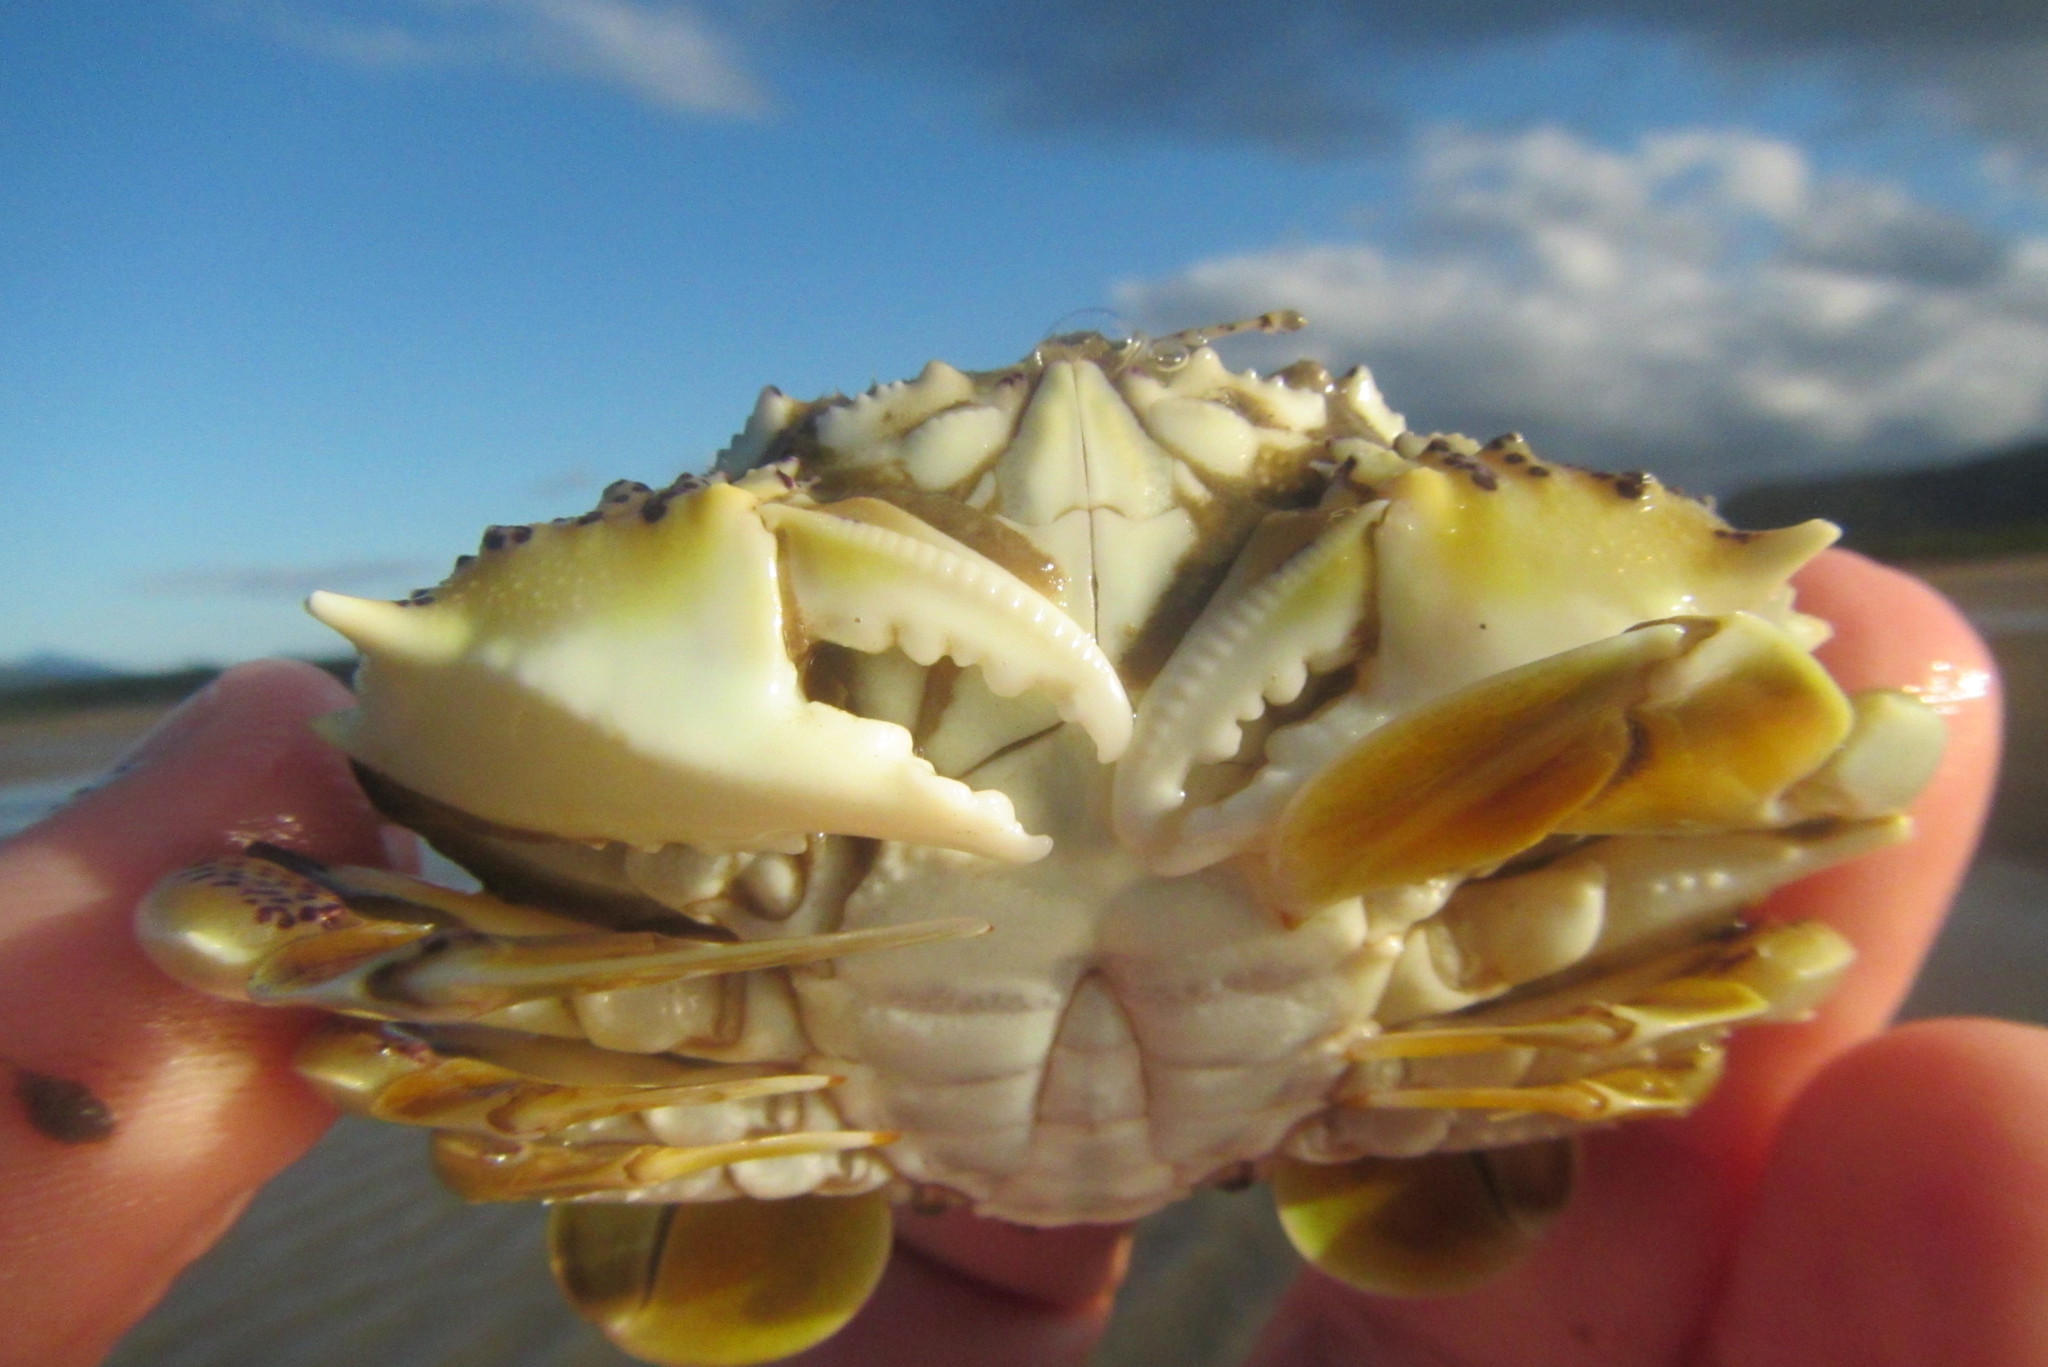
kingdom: Animalia
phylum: Arthropoda
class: Malacostraca
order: Decapoda
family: Matutidae
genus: Matuta
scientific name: Matuta victor
